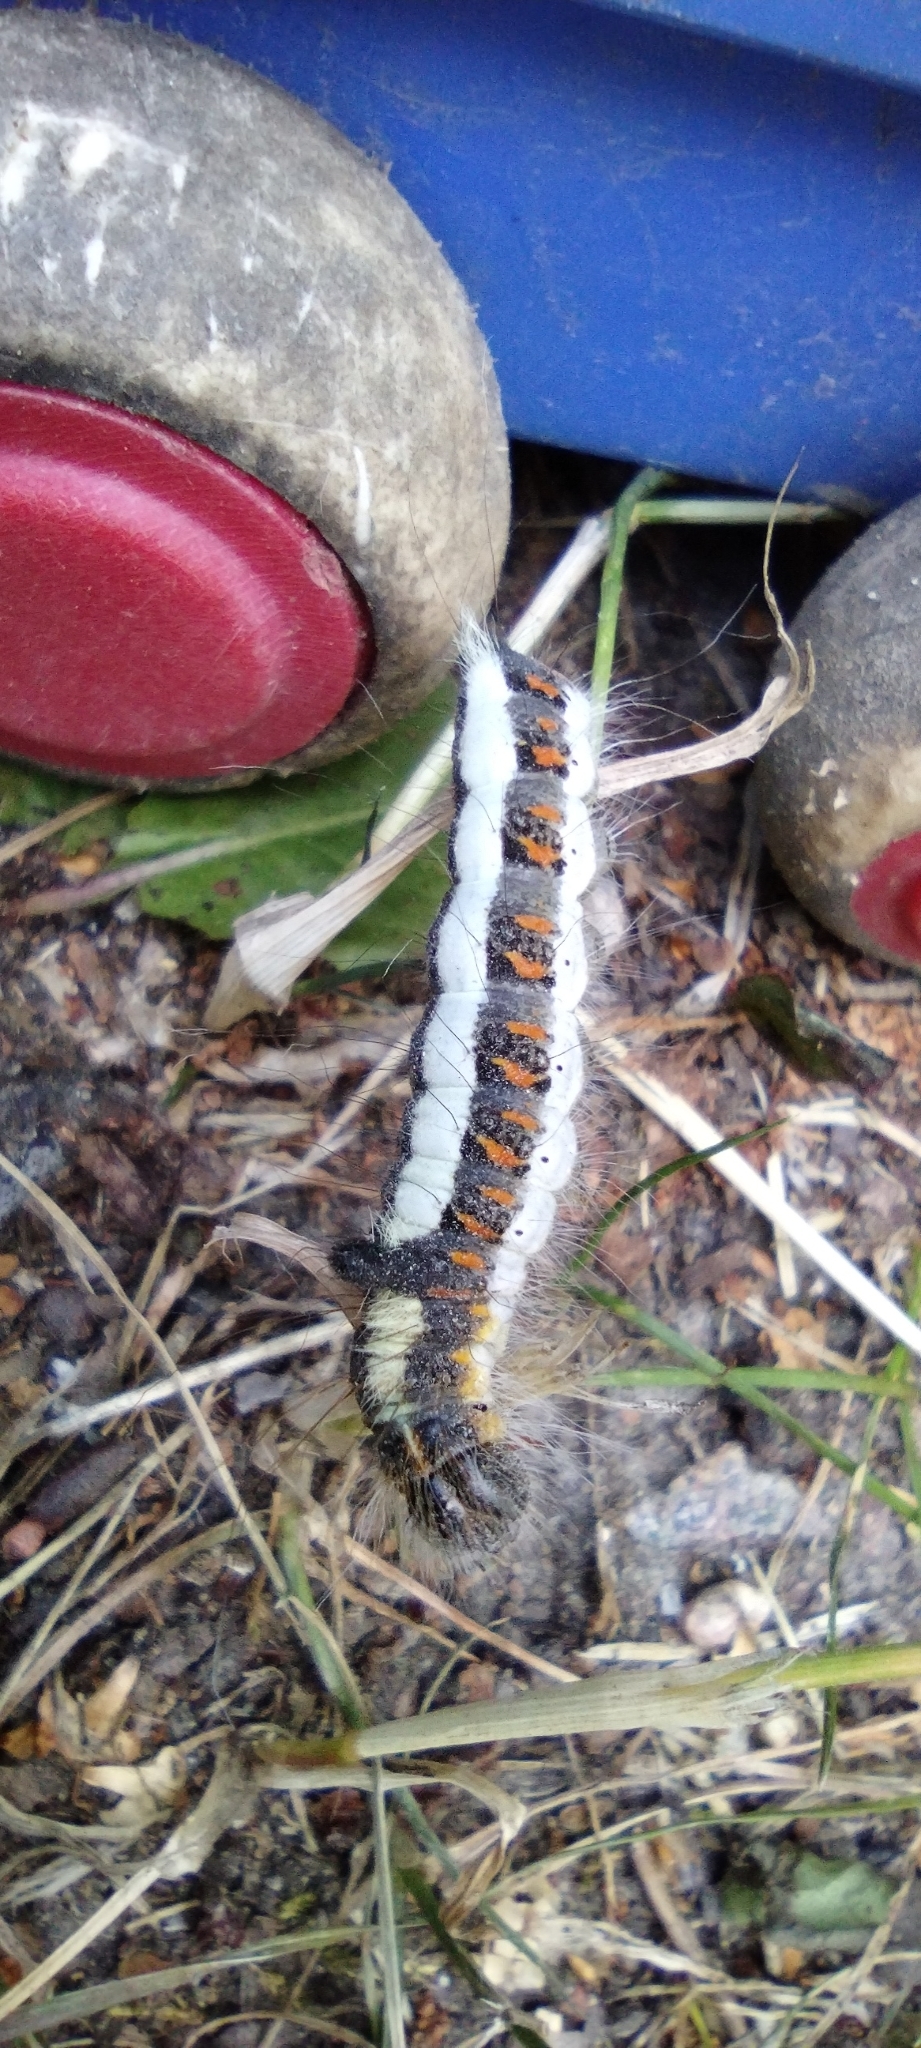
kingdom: Animalia
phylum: Arthropoda
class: Insecta
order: Lepidoptera
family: Noctuidae
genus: Acronicta
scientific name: Acronicta psi
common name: Grey dagger
